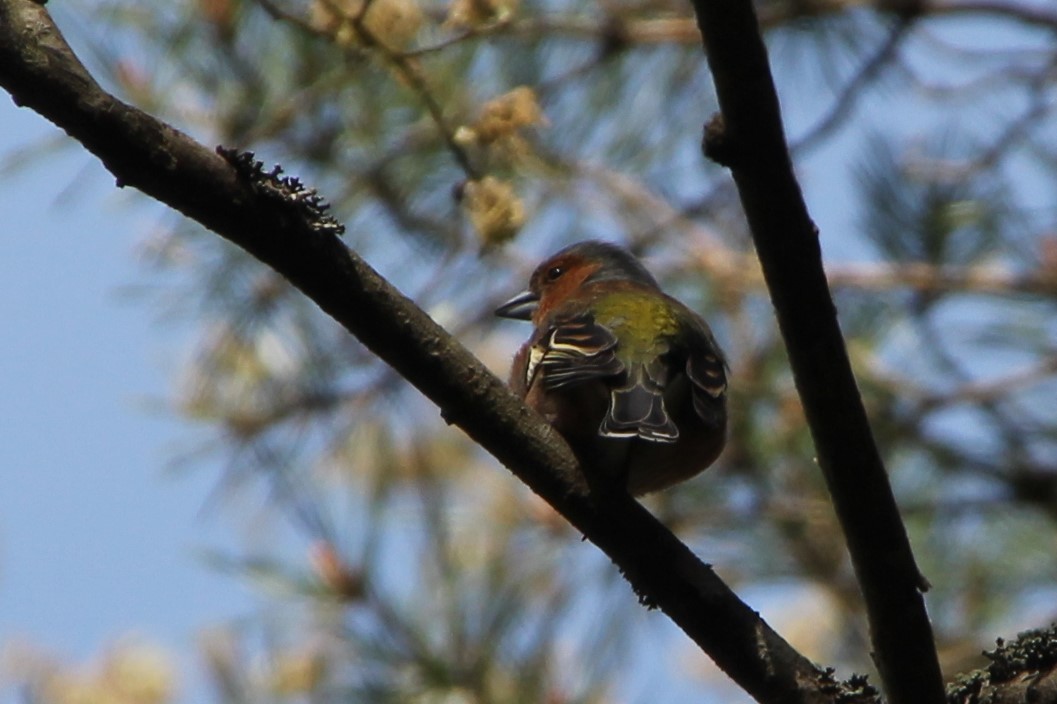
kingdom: Animalia
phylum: Chordata
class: Aves
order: Passeriformes
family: Fringillidae
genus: Fringilla
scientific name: Fringilla coelebs
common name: Common chaffinch
